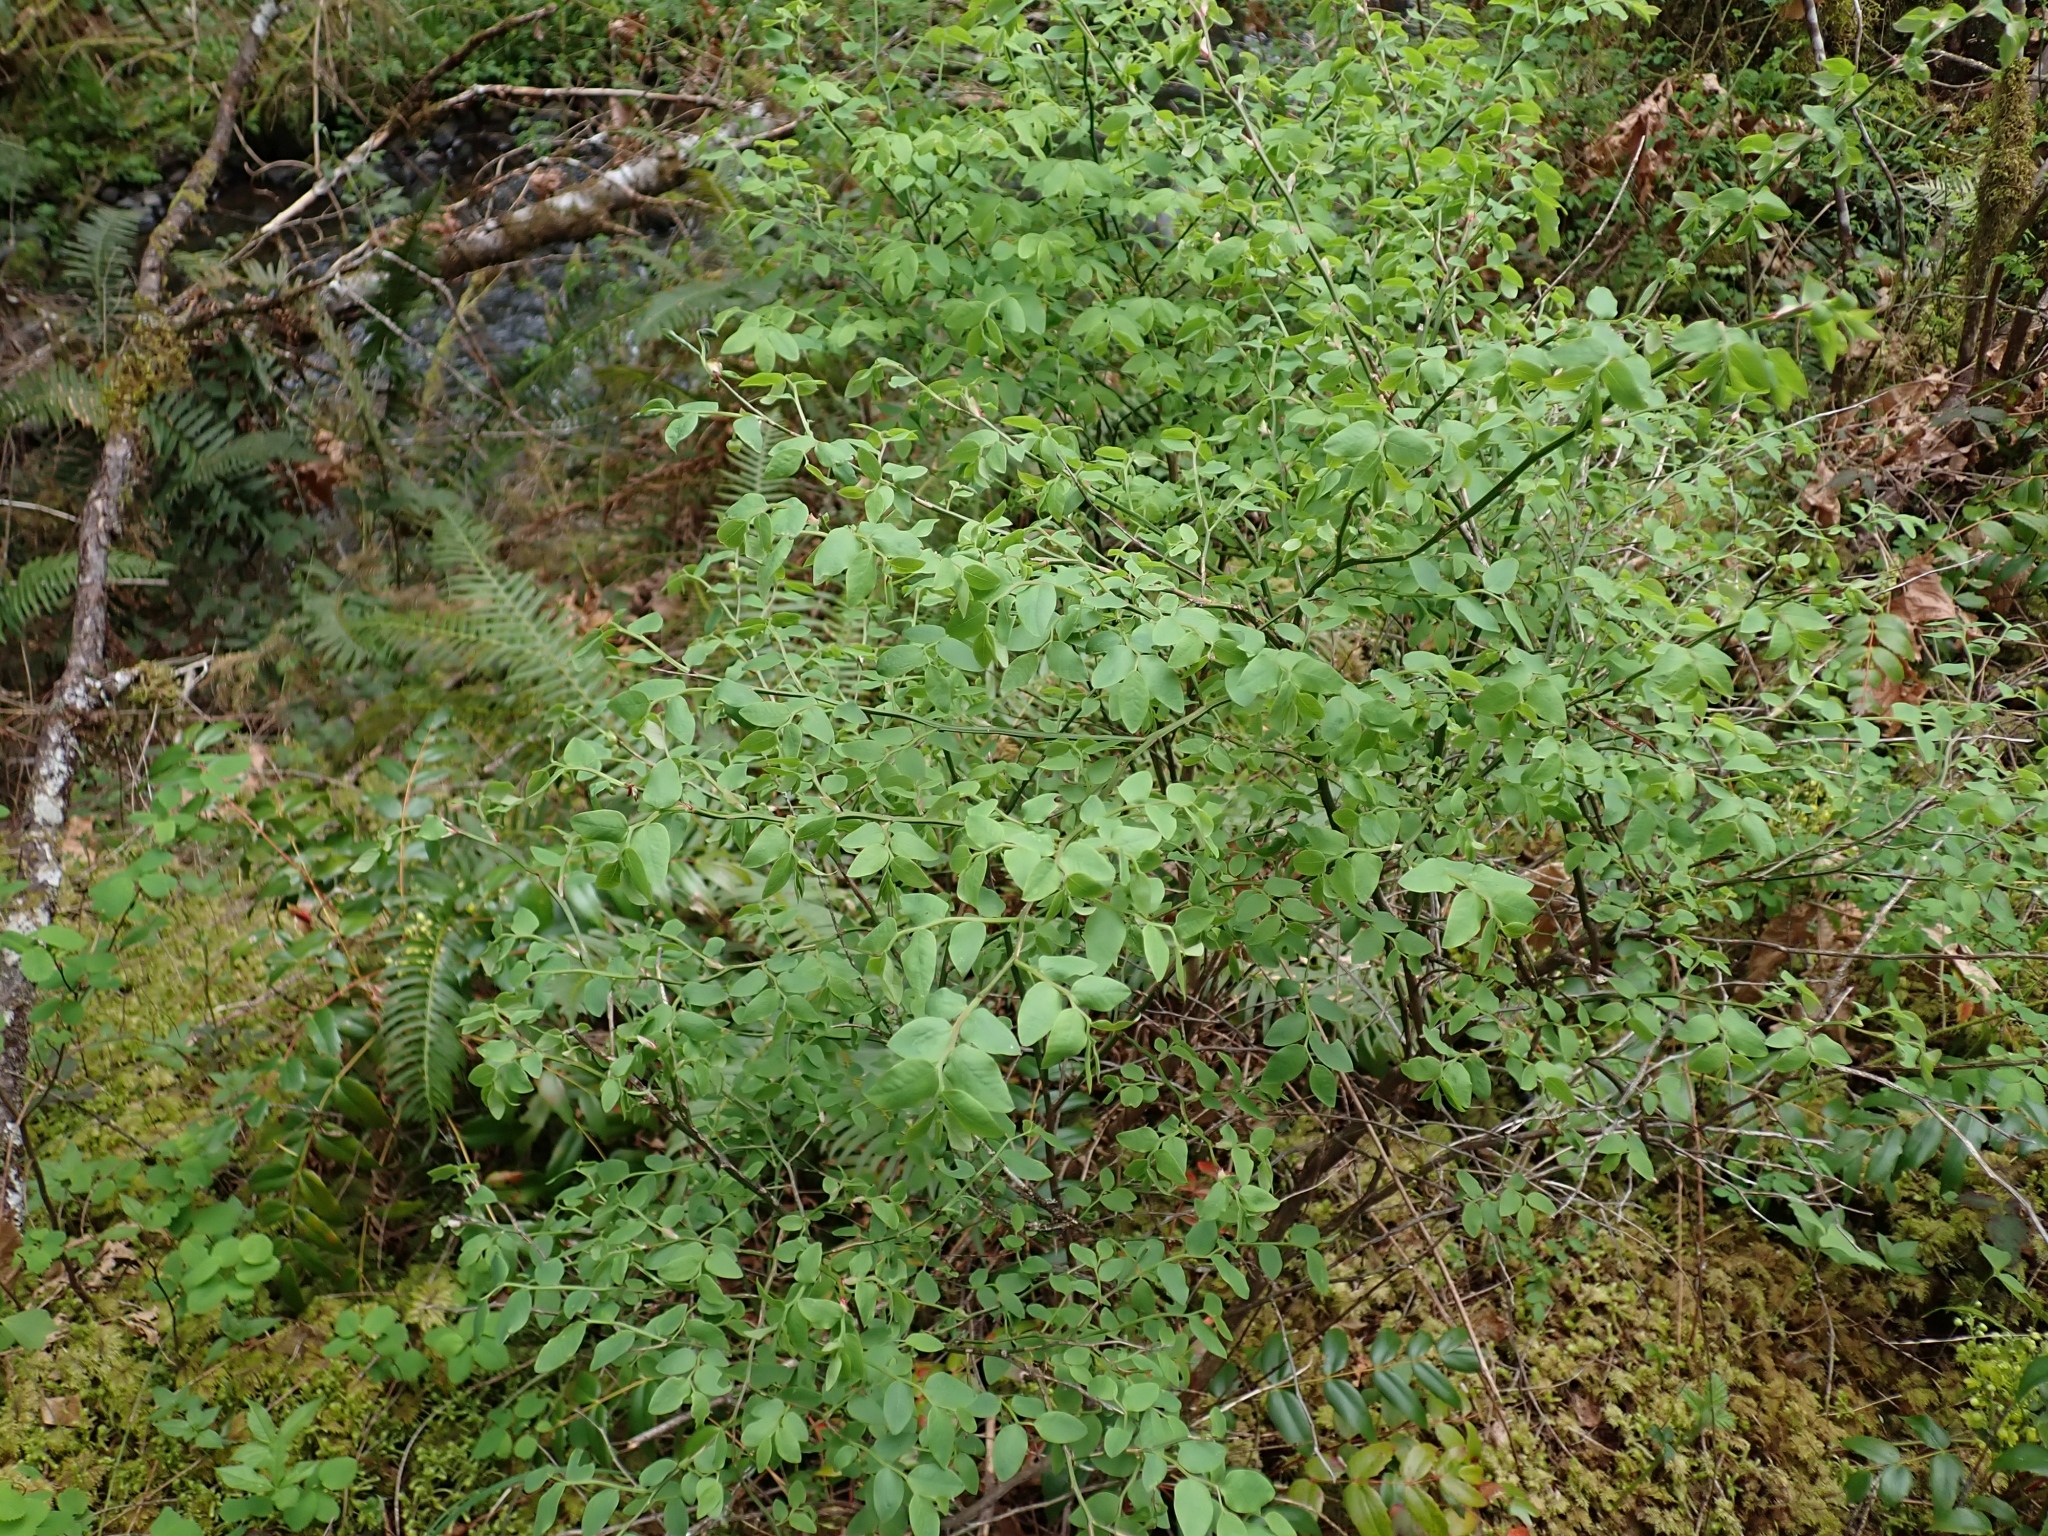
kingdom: Plantae
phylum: Tracheophyta
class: Magnoliopsida
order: Ericales
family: Ericaceae
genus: Vaccinium
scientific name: Vaccinium parvifolium
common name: Red-huckleberry
